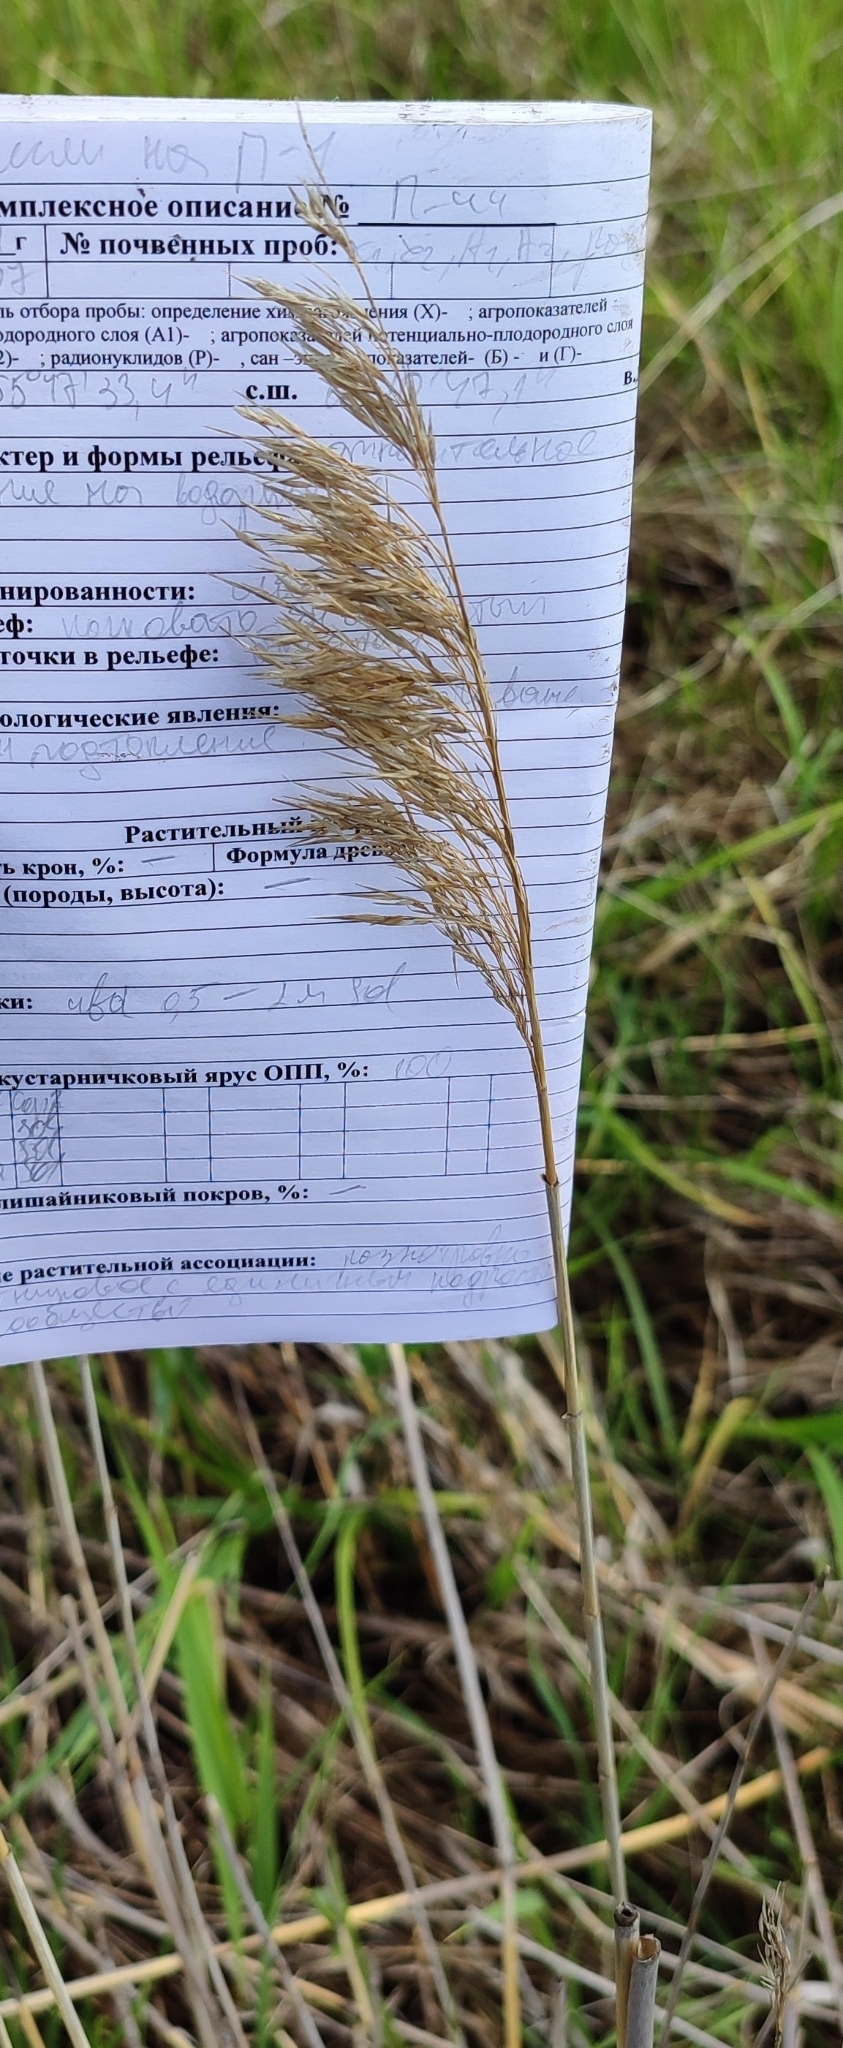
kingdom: Plantae
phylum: Tracheophyta
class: Liliopsida
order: Poales
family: Poaceae
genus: Phragmites
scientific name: Phragmites australis
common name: Common reed
